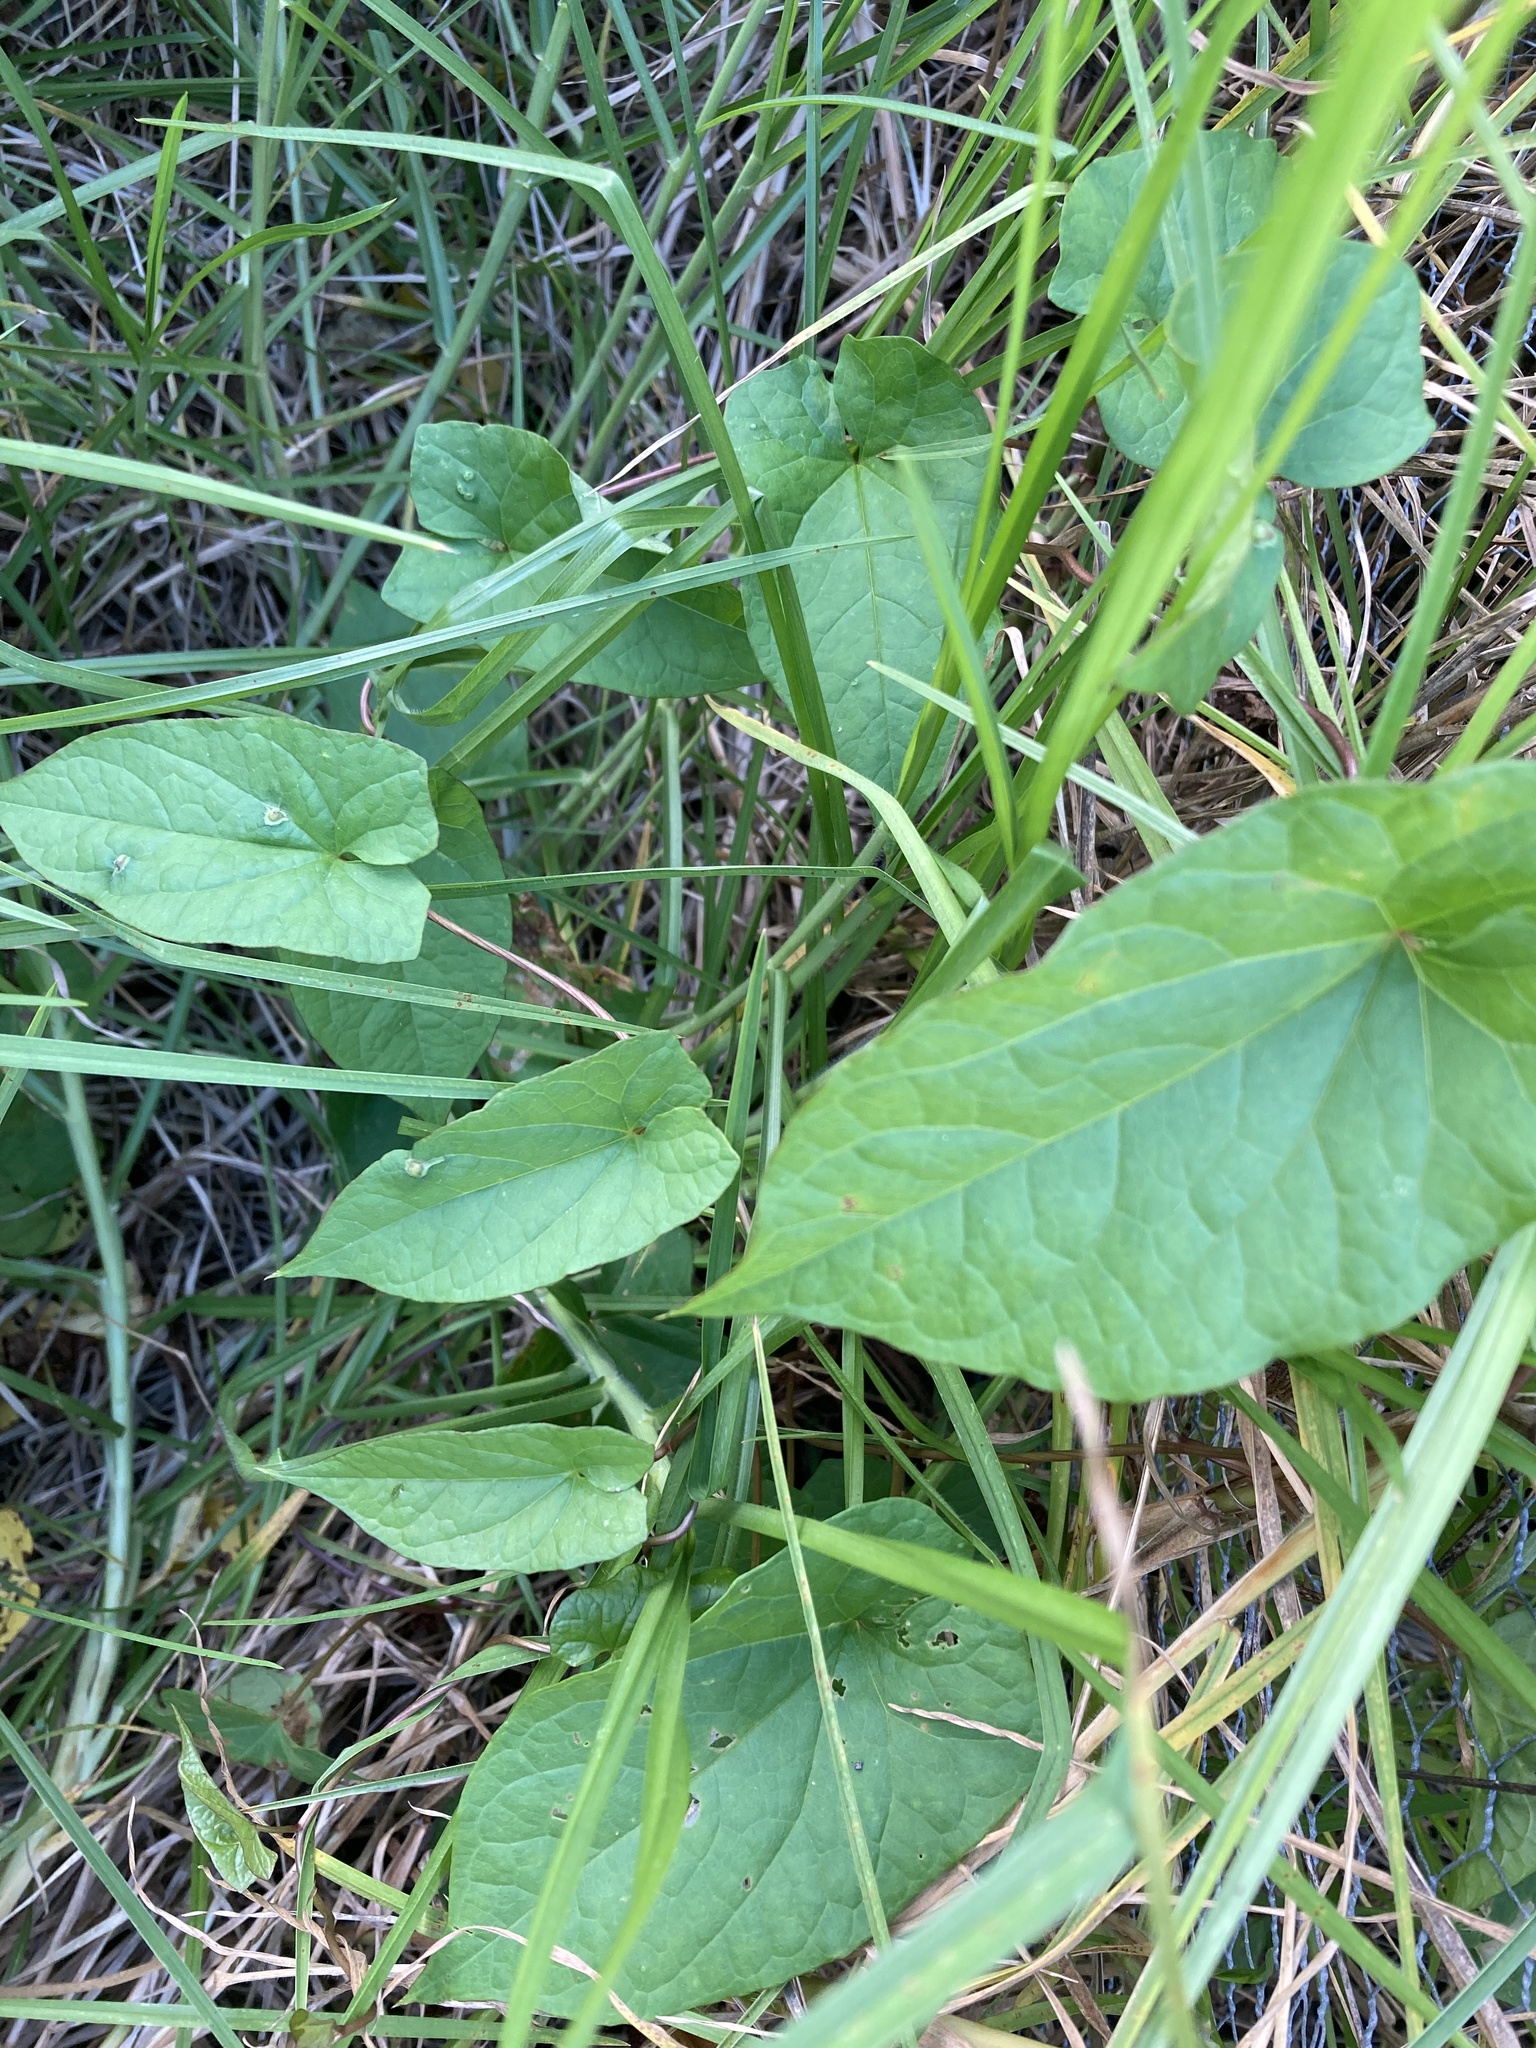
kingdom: Plantae
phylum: Tracheophyta
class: Magnoliopsida
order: Solanales
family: Convolvulaceae
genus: Calystegia
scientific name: Calystegia silvatica
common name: Large bindweed
